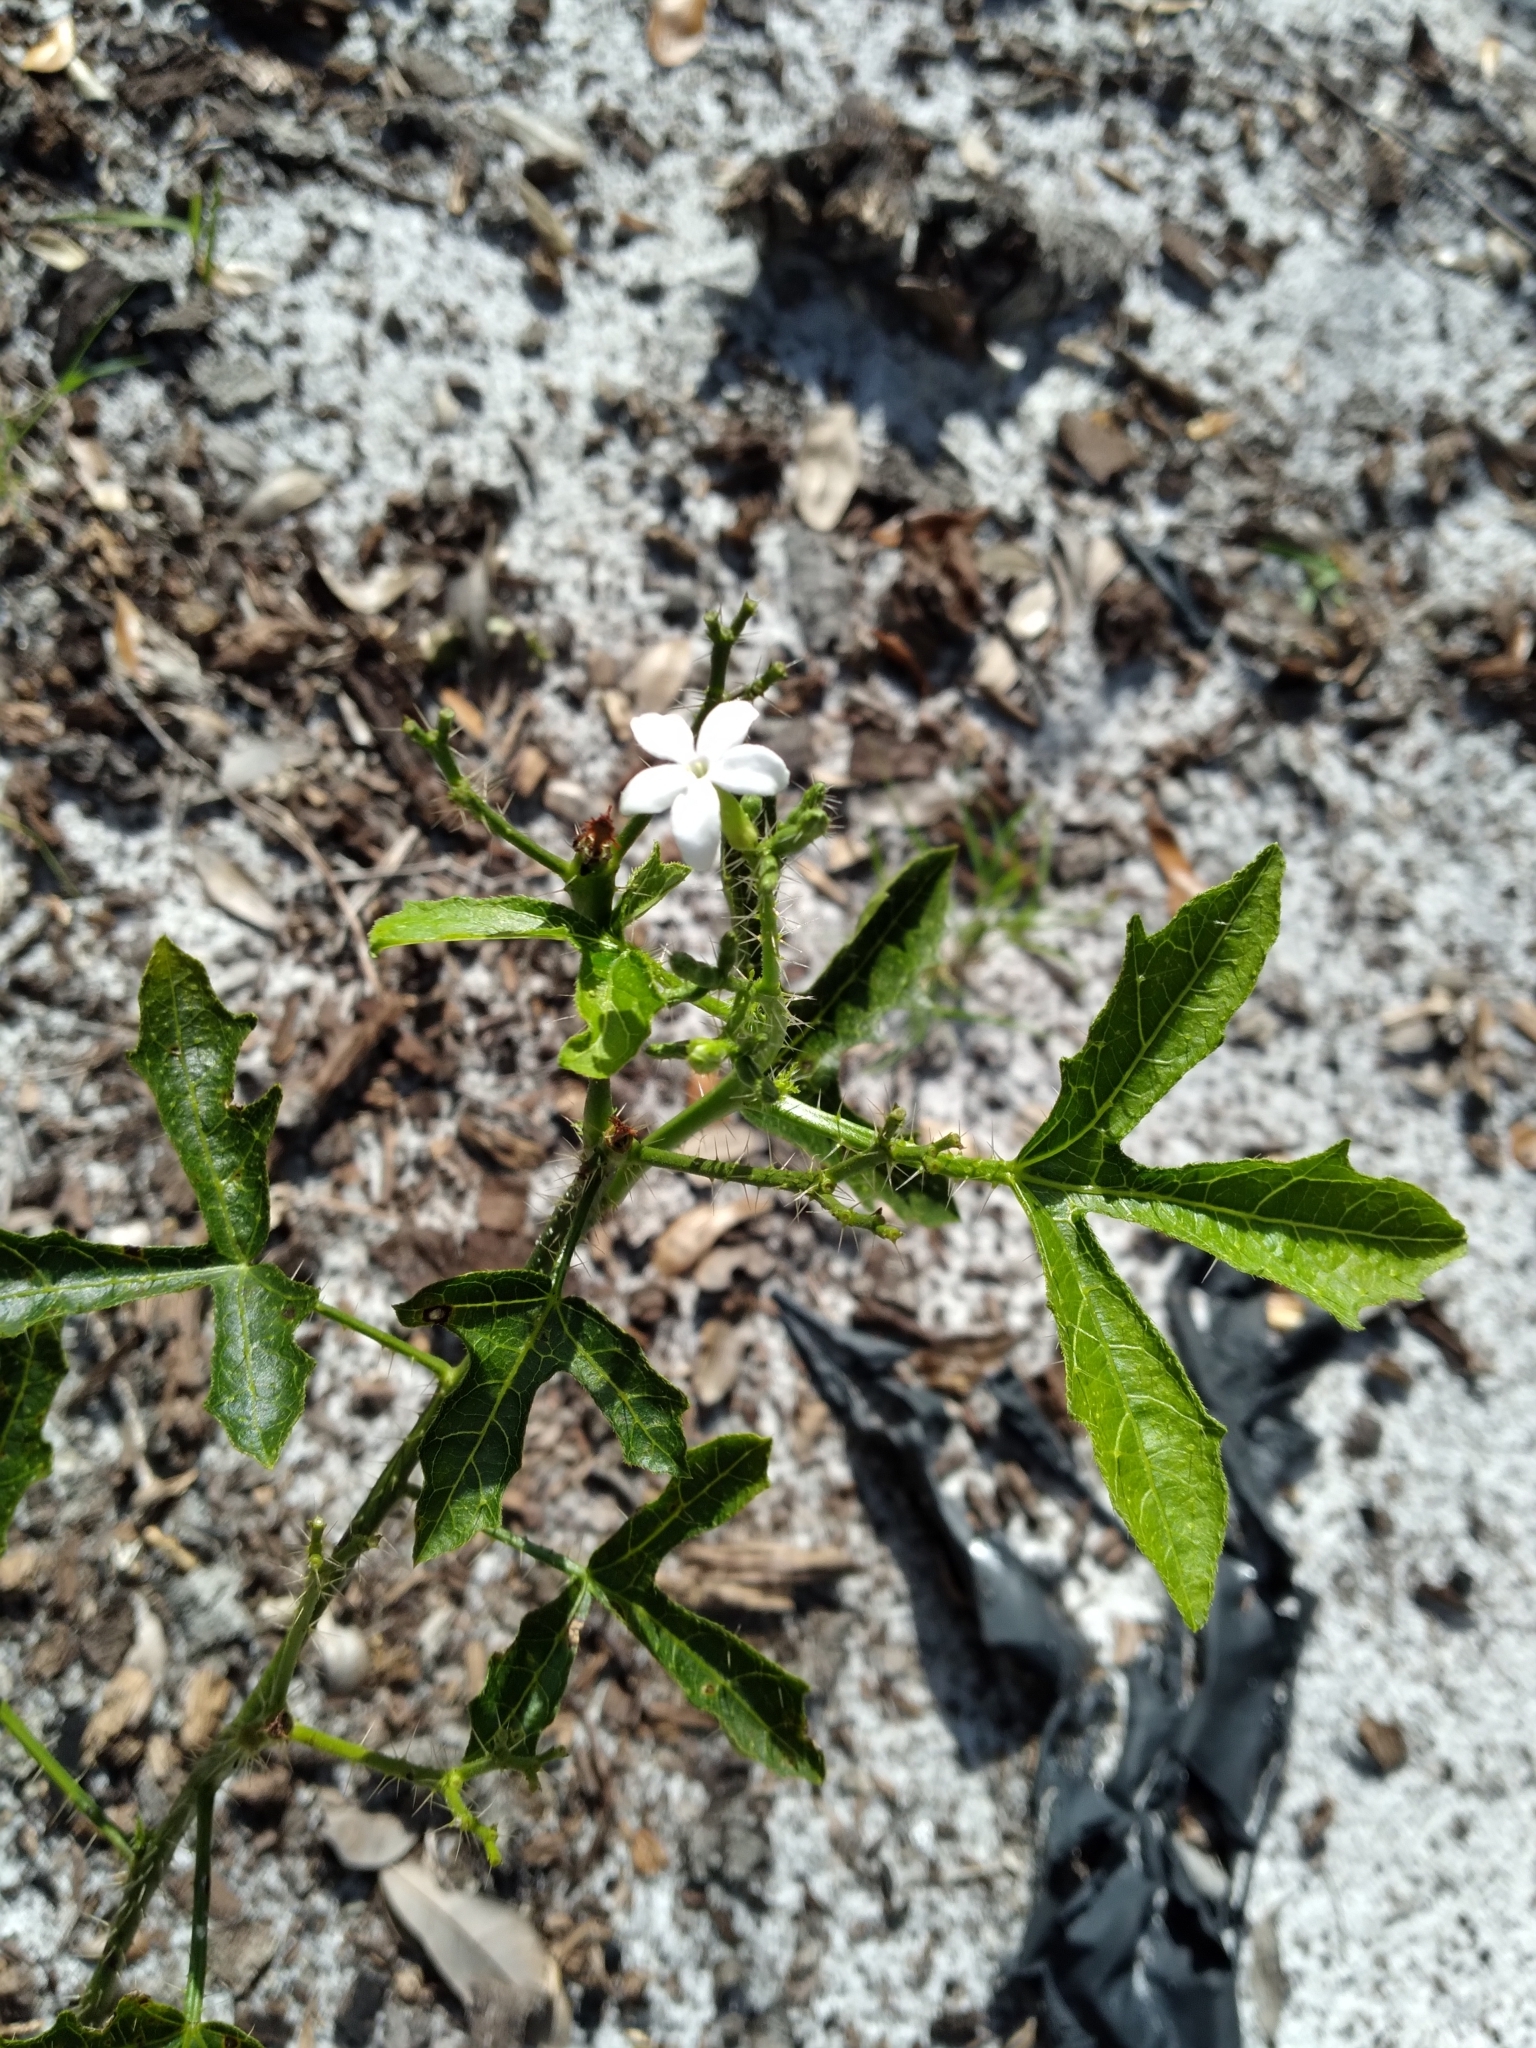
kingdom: Plantae
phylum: Tracheophyta
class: Magnoliopsida
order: Malpighiales
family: Euphorbiaceae
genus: Cnidoscolus
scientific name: Cnidoscolus stimulosus
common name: Bull-nettle
